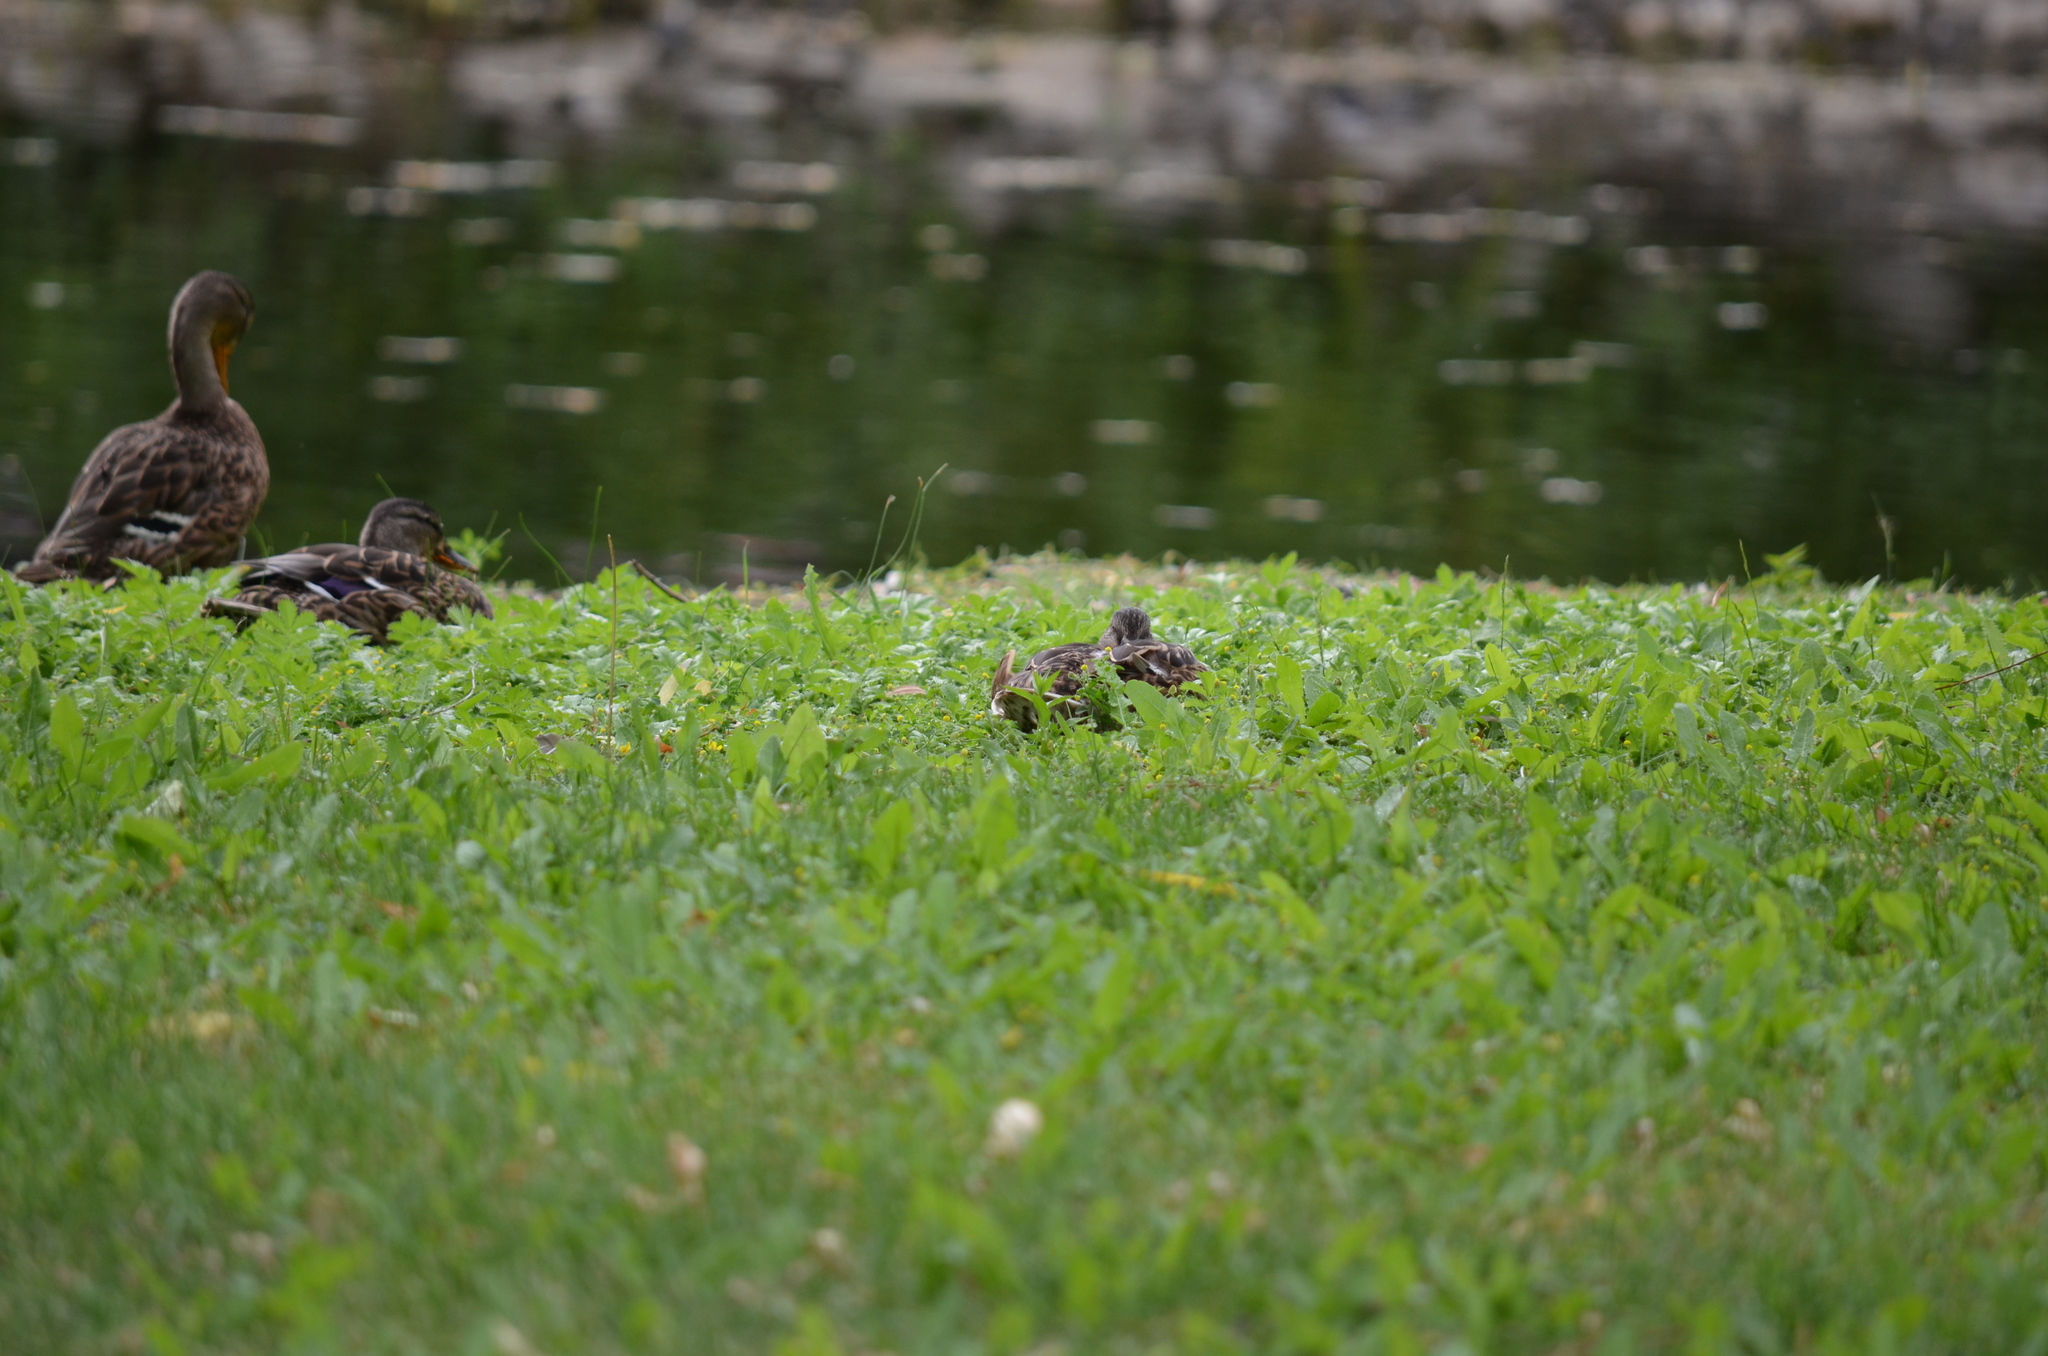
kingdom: Animalia
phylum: Chordata
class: Aves
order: Anseriformes
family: Anatidae
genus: Anas
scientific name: Anas platyrhynchos
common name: Mallard
